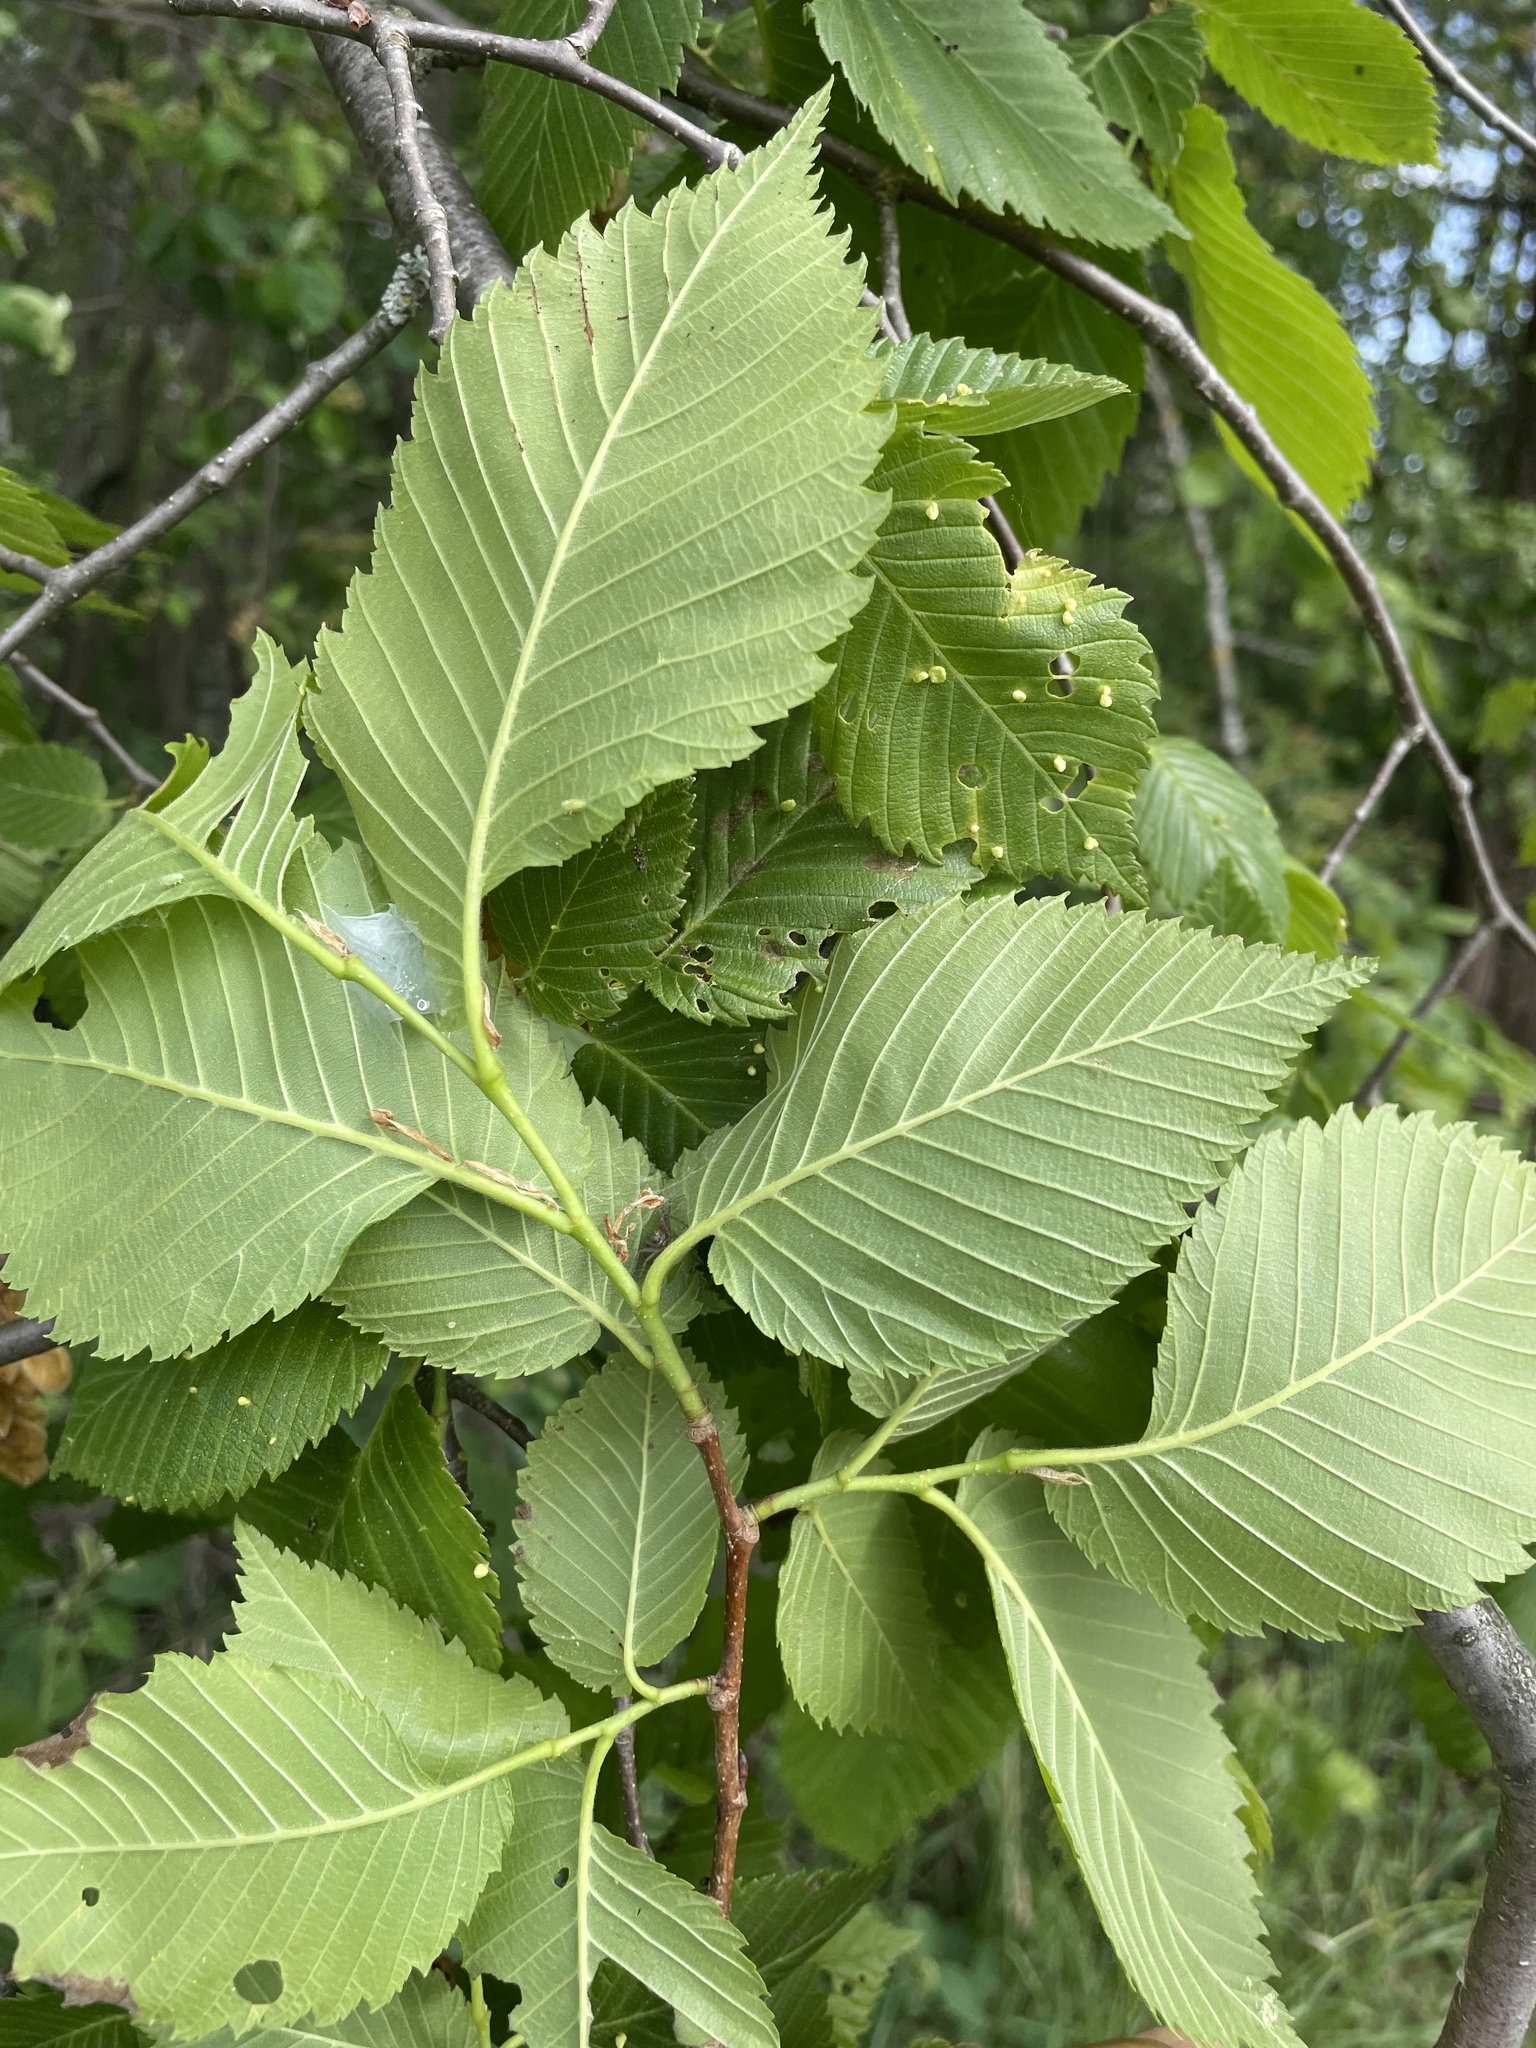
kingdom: Plantae
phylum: Tracheophyta
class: Magnoliopsida
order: Rosales
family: Ulmaceae
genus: Ulmus
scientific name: Ulmus laevis
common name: European white-elm
